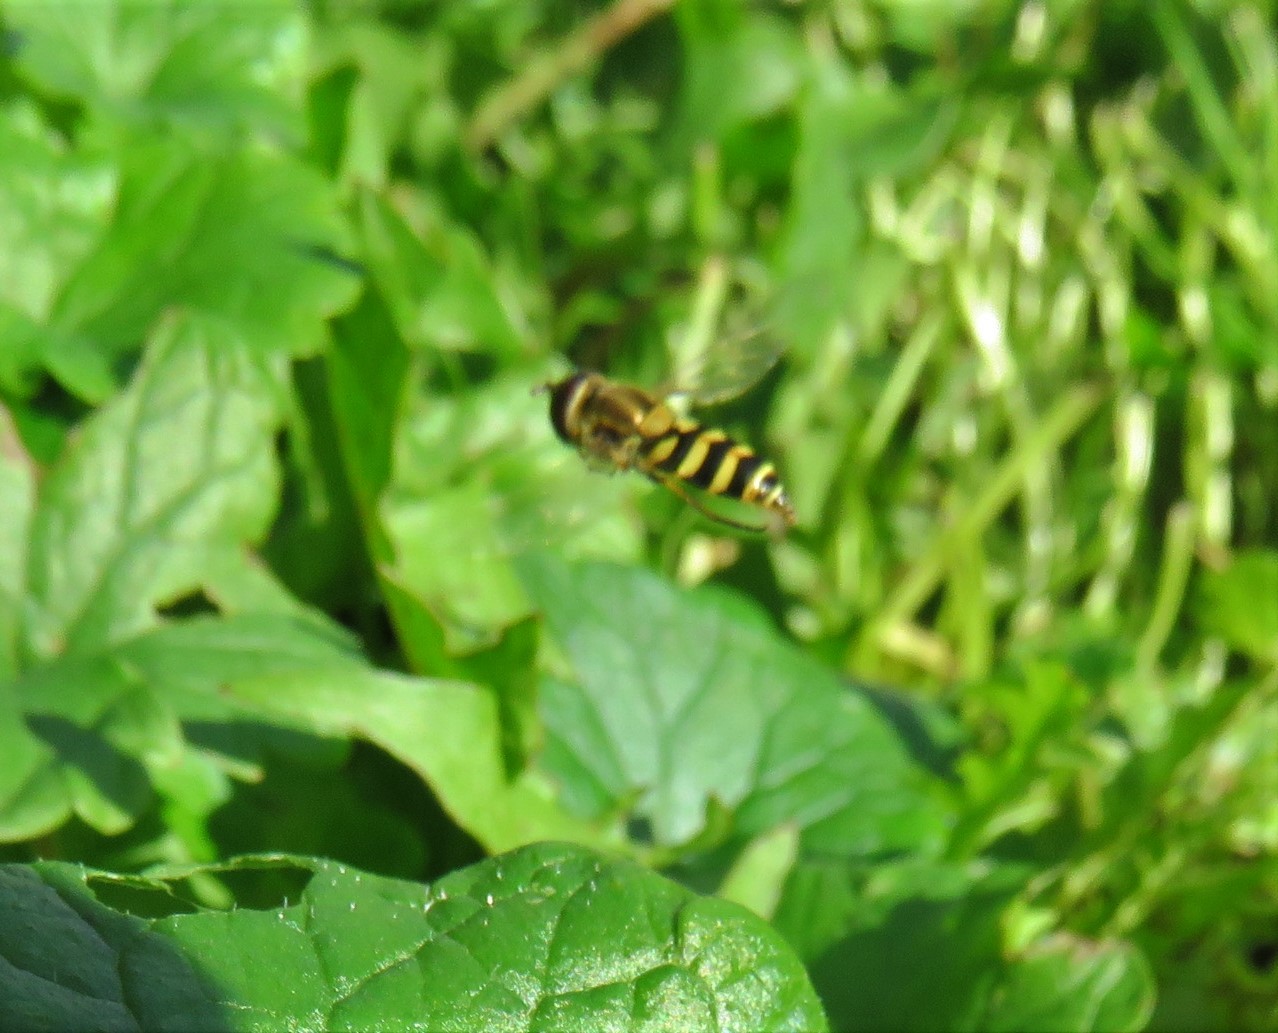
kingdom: Animalia
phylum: Arthropoda
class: Insecta
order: Diptera
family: Syrphidae
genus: Syrphus
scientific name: Syrphus
